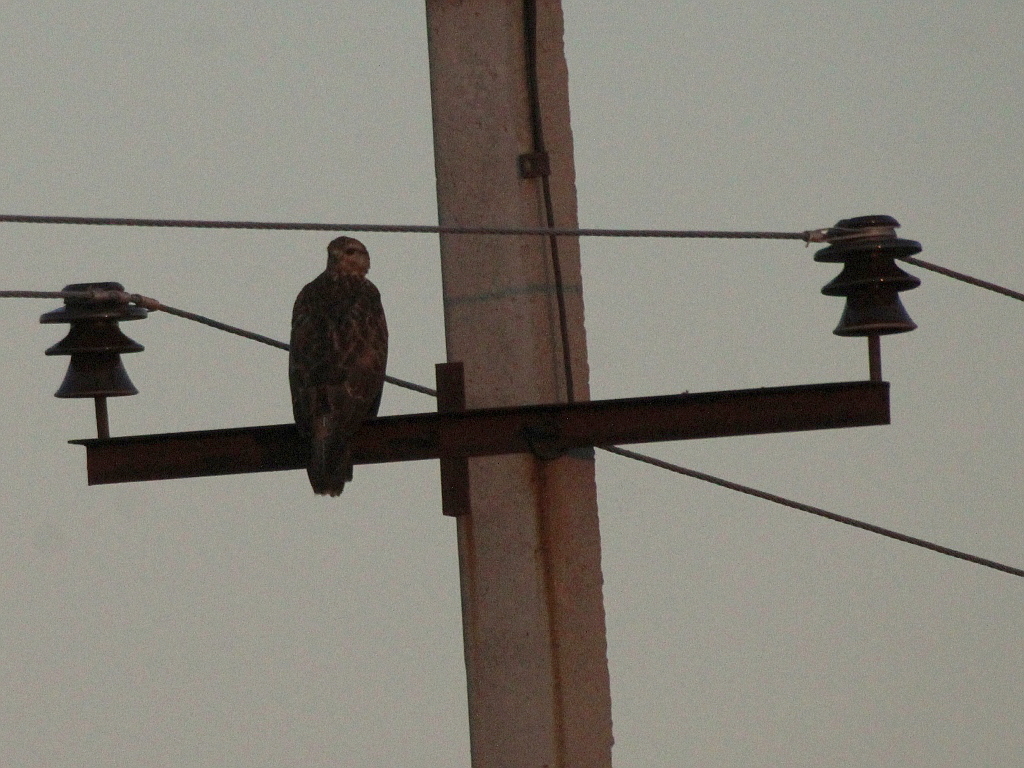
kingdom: Animalia
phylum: Chordata
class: Aves
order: Accipitriformes
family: Accipitridae
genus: Buteo
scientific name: Buteo buteo
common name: Common buzzard
